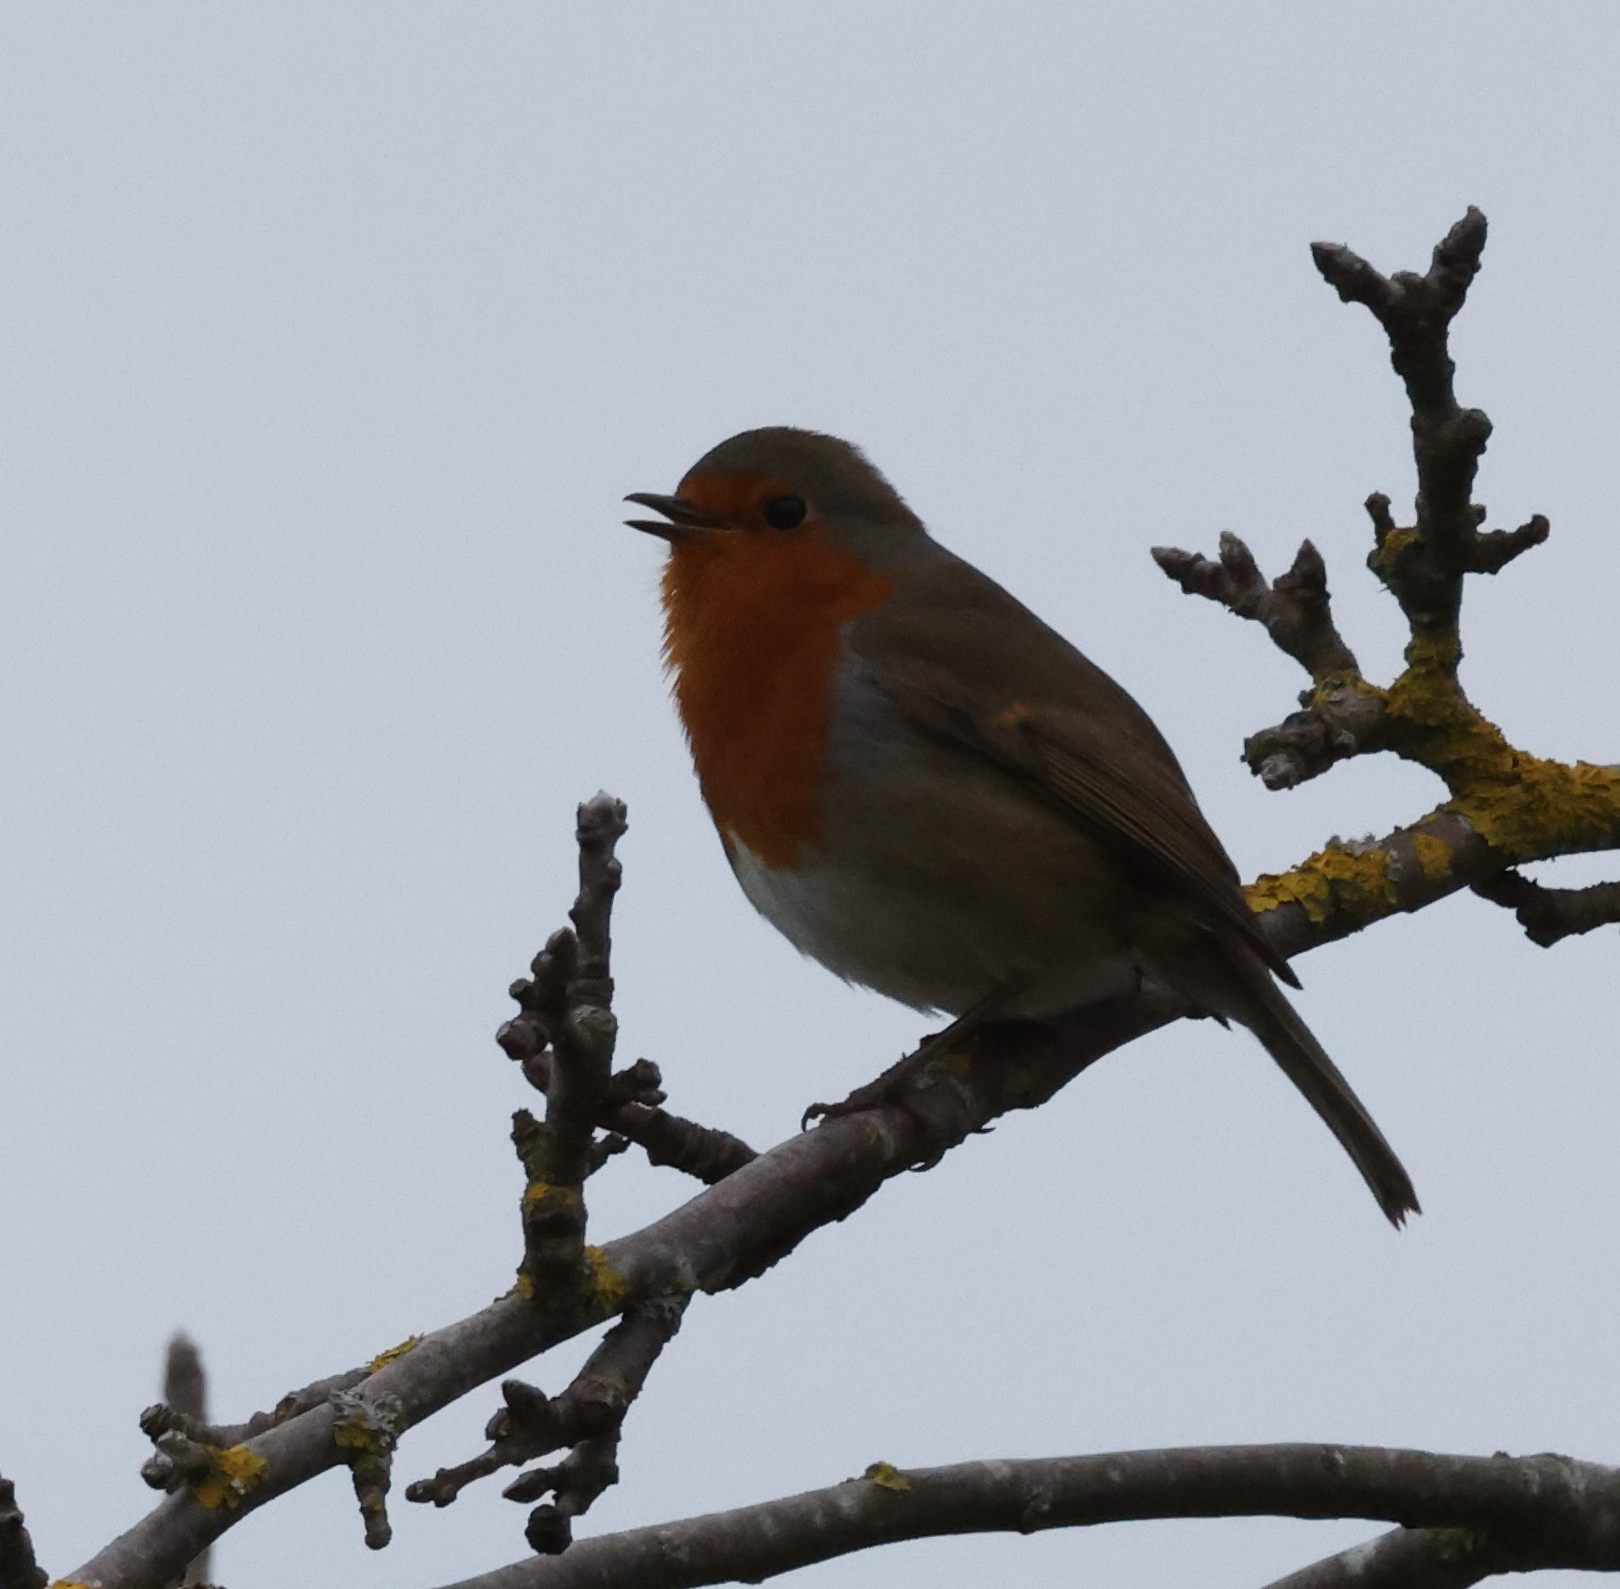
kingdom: Animalia
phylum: Chordata
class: Aves
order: Passeriformes
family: Muscicapidae
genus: Erithacus
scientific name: Erithacus rubecula
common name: European robin
